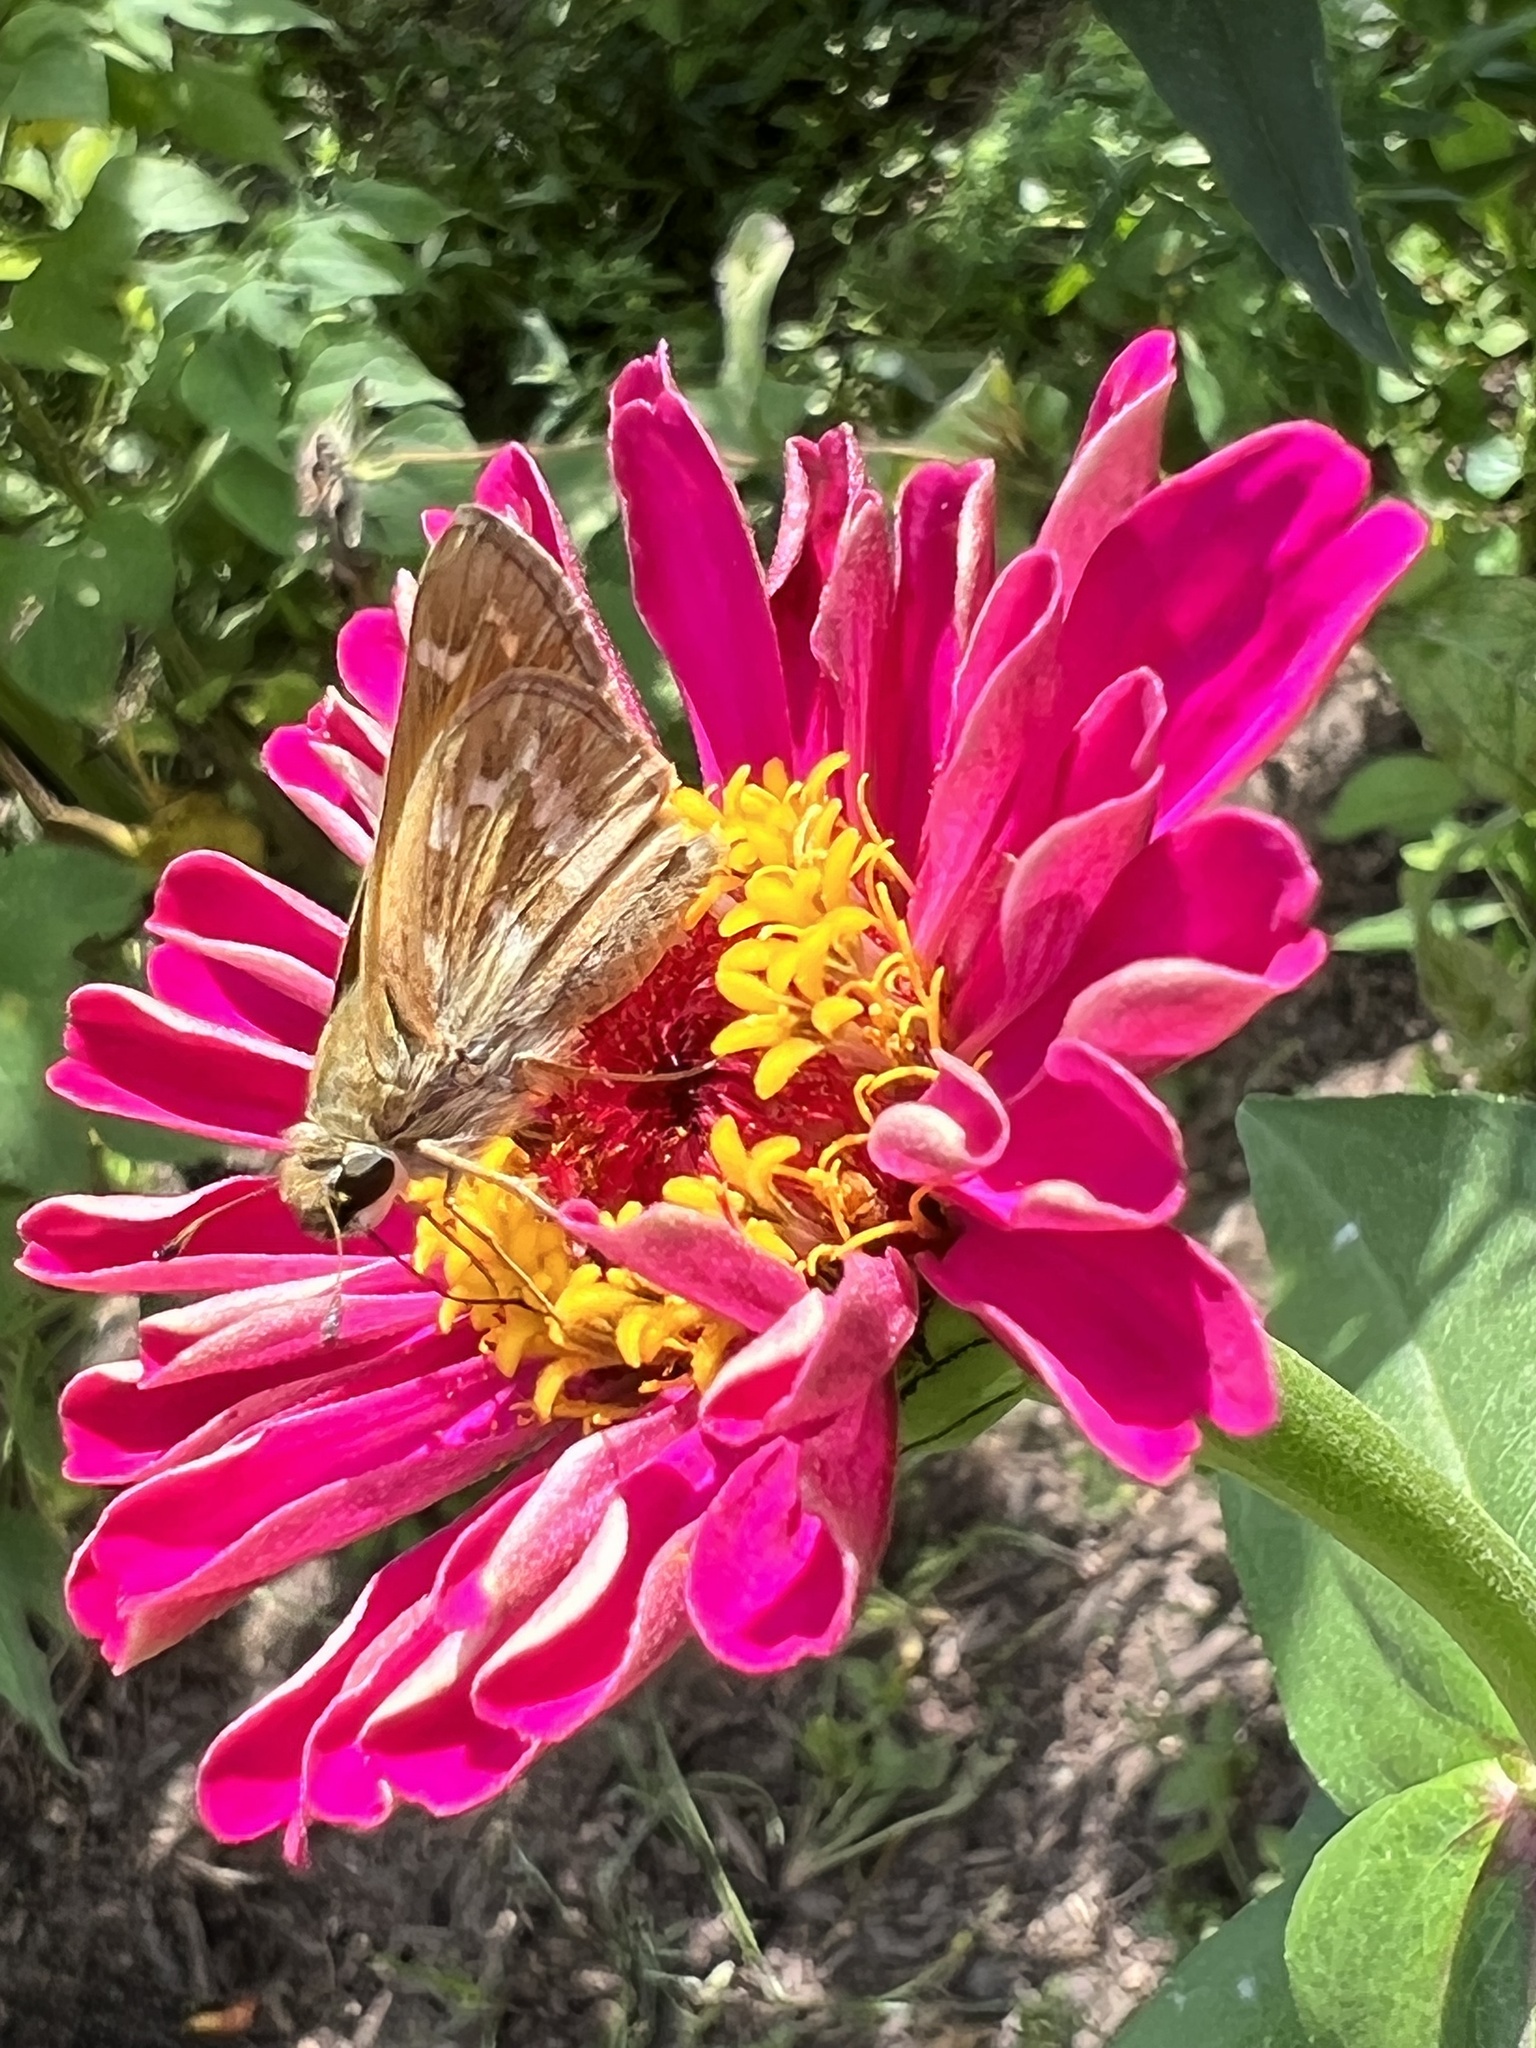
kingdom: Animalia
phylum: Arthropoda
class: Insecta
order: Lepidoptera
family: Hesperiidae
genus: Atalopedes
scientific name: Atalopedes
